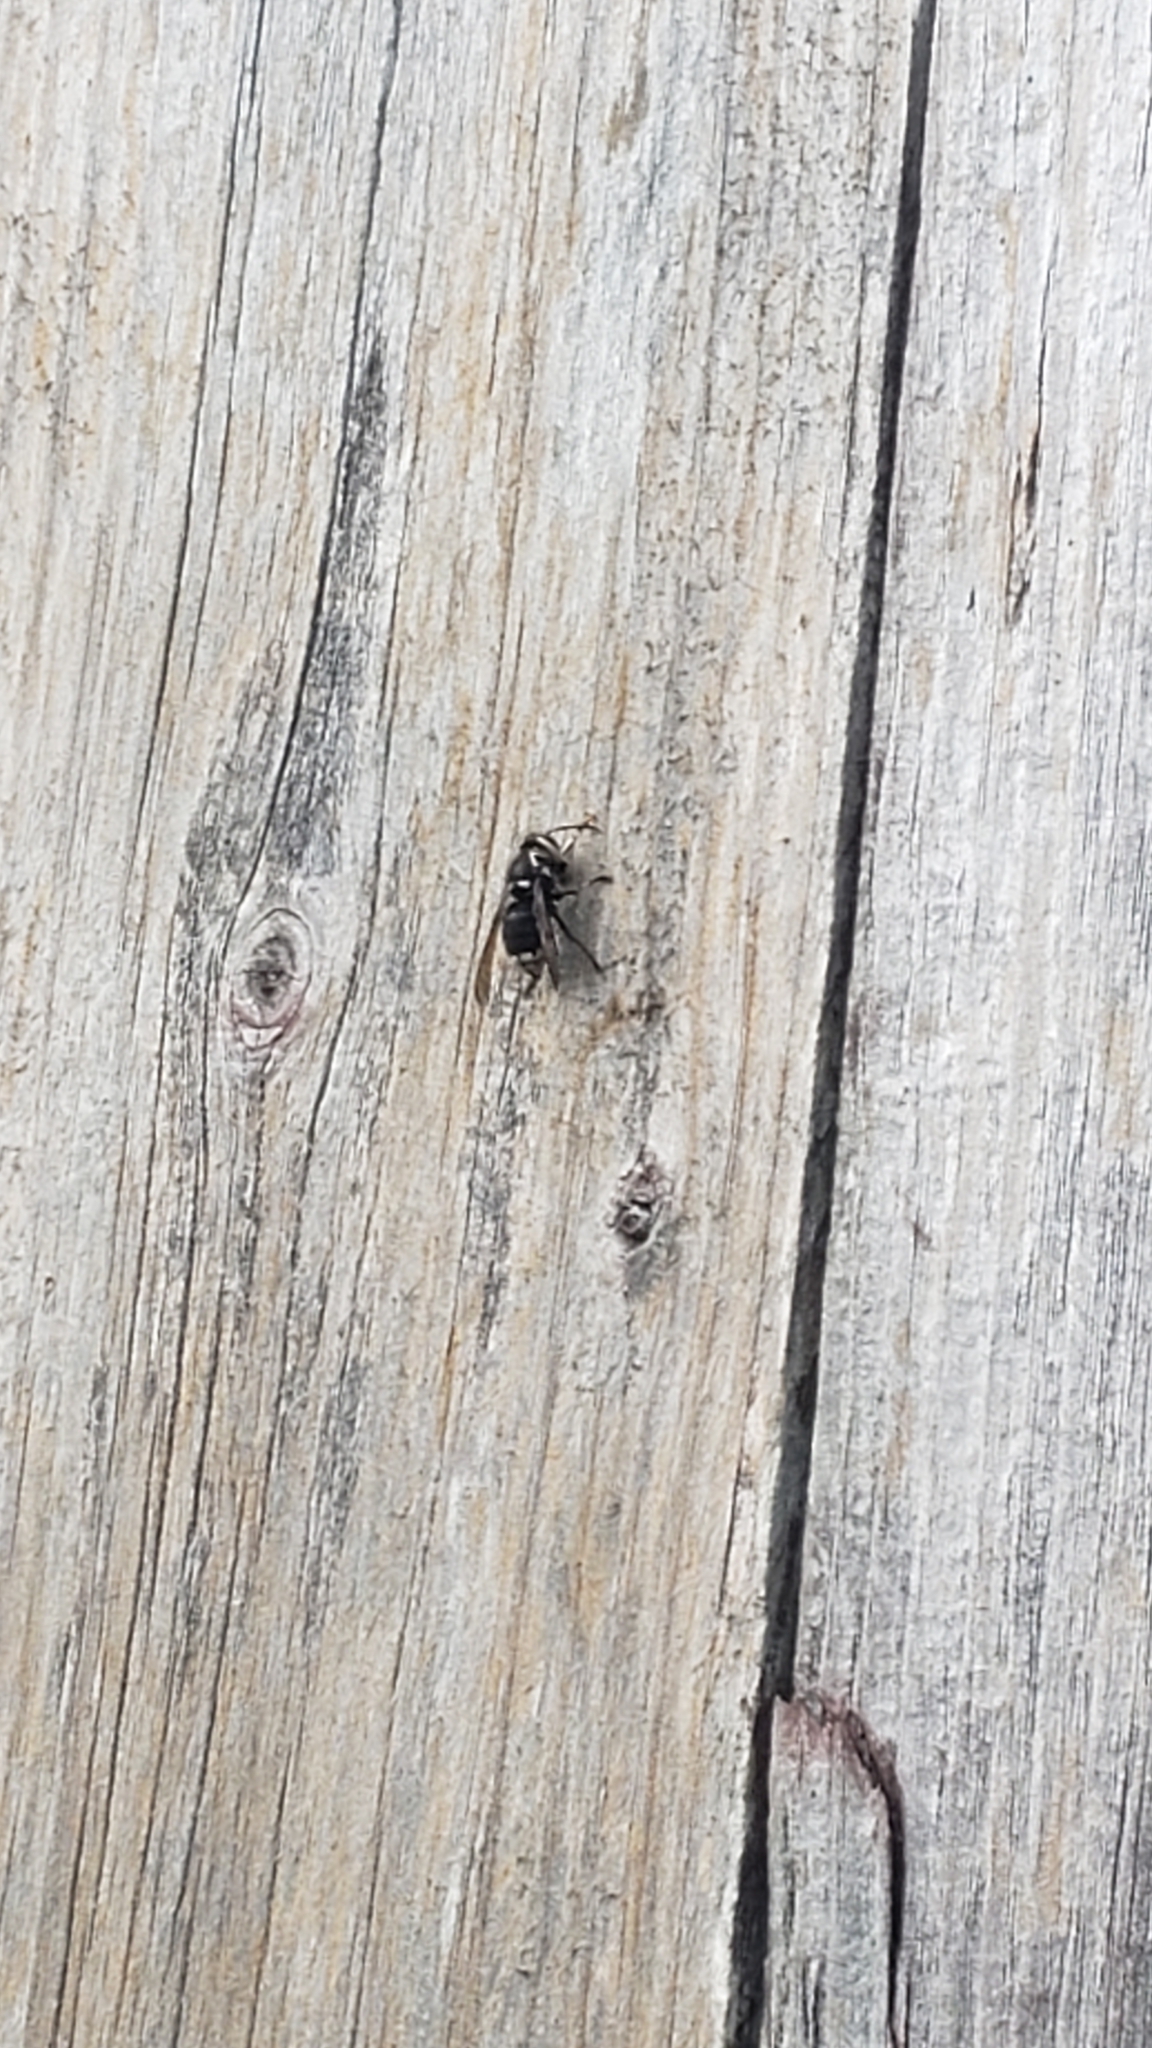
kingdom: Animalia
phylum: Arthropoda
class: Insecta
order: Hymenoptera
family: Vespidae
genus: Dolichovespula
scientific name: Dolichovespula maculata
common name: Bald-faced hornet
